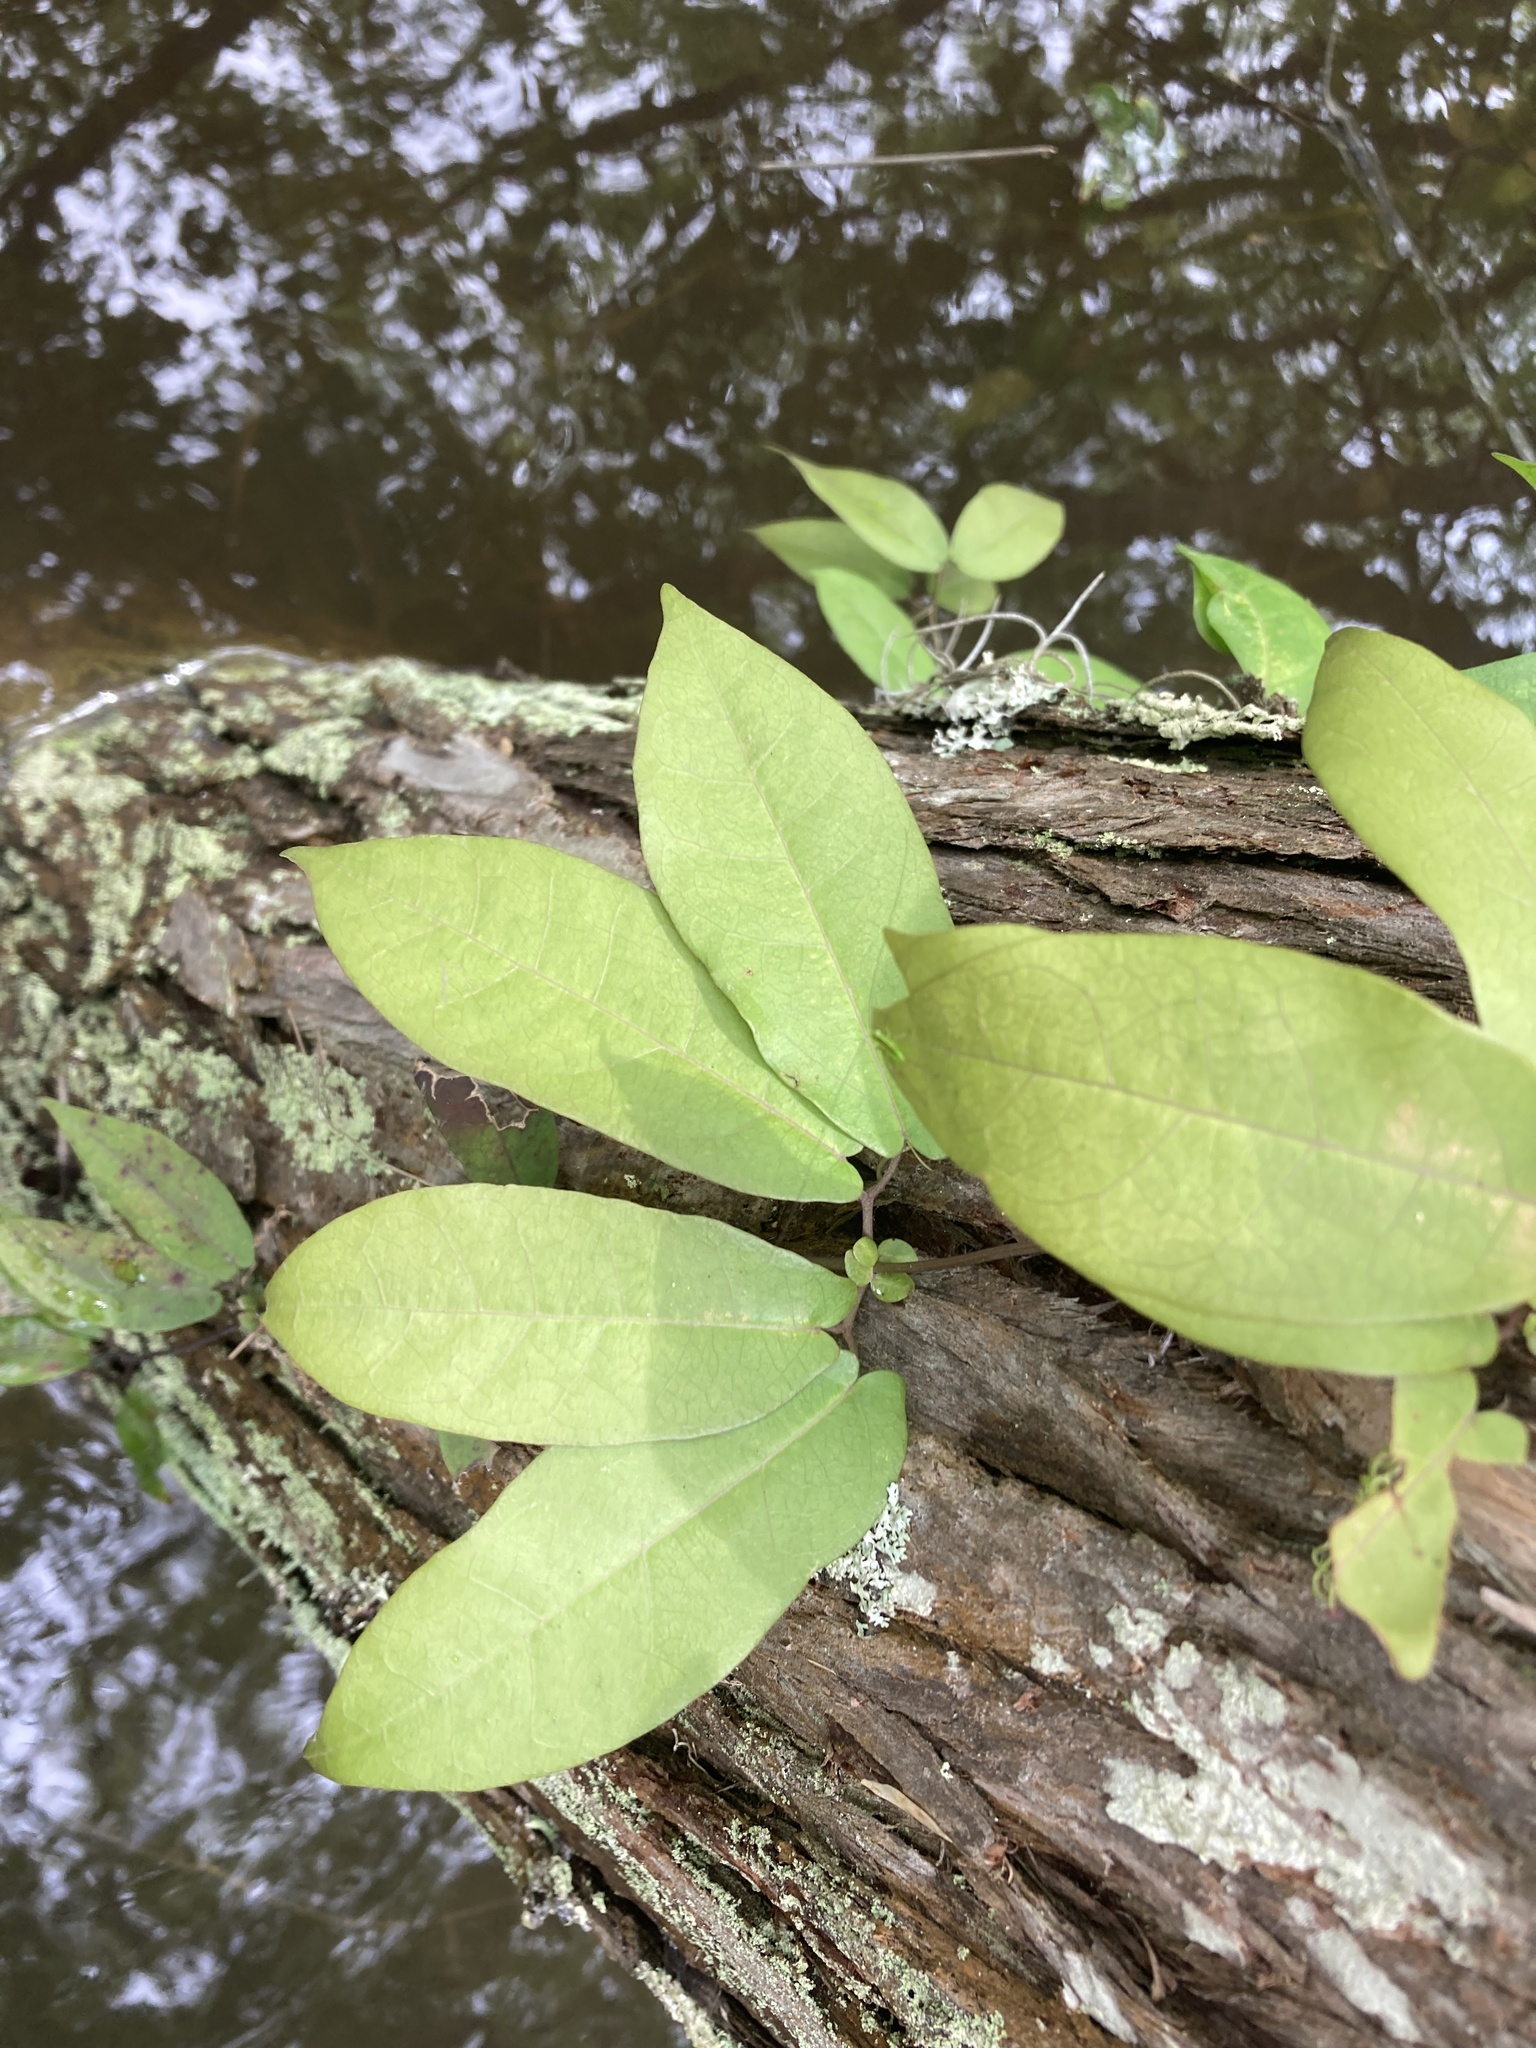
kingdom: Plantae
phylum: Tracheophyta
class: Magnoliopsida
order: Lamiales
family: Bignoniaceae
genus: Bignonia
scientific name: Bignonia capreolata
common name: Crossvine
